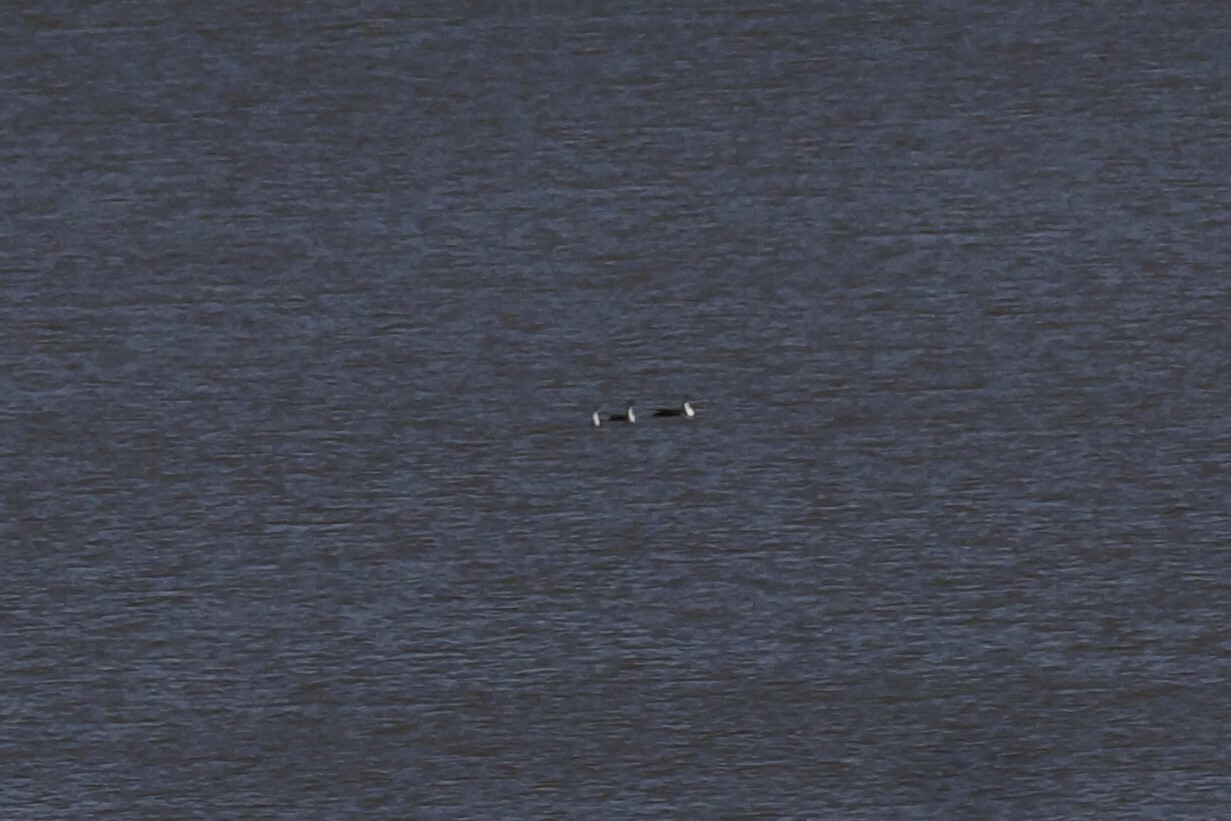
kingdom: Animalia
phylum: Chordata
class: Aves
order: Podicipediformes
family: Podicipedidae
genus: Podiceps
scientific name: Podiceps cristatus
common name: Great crested grebe
